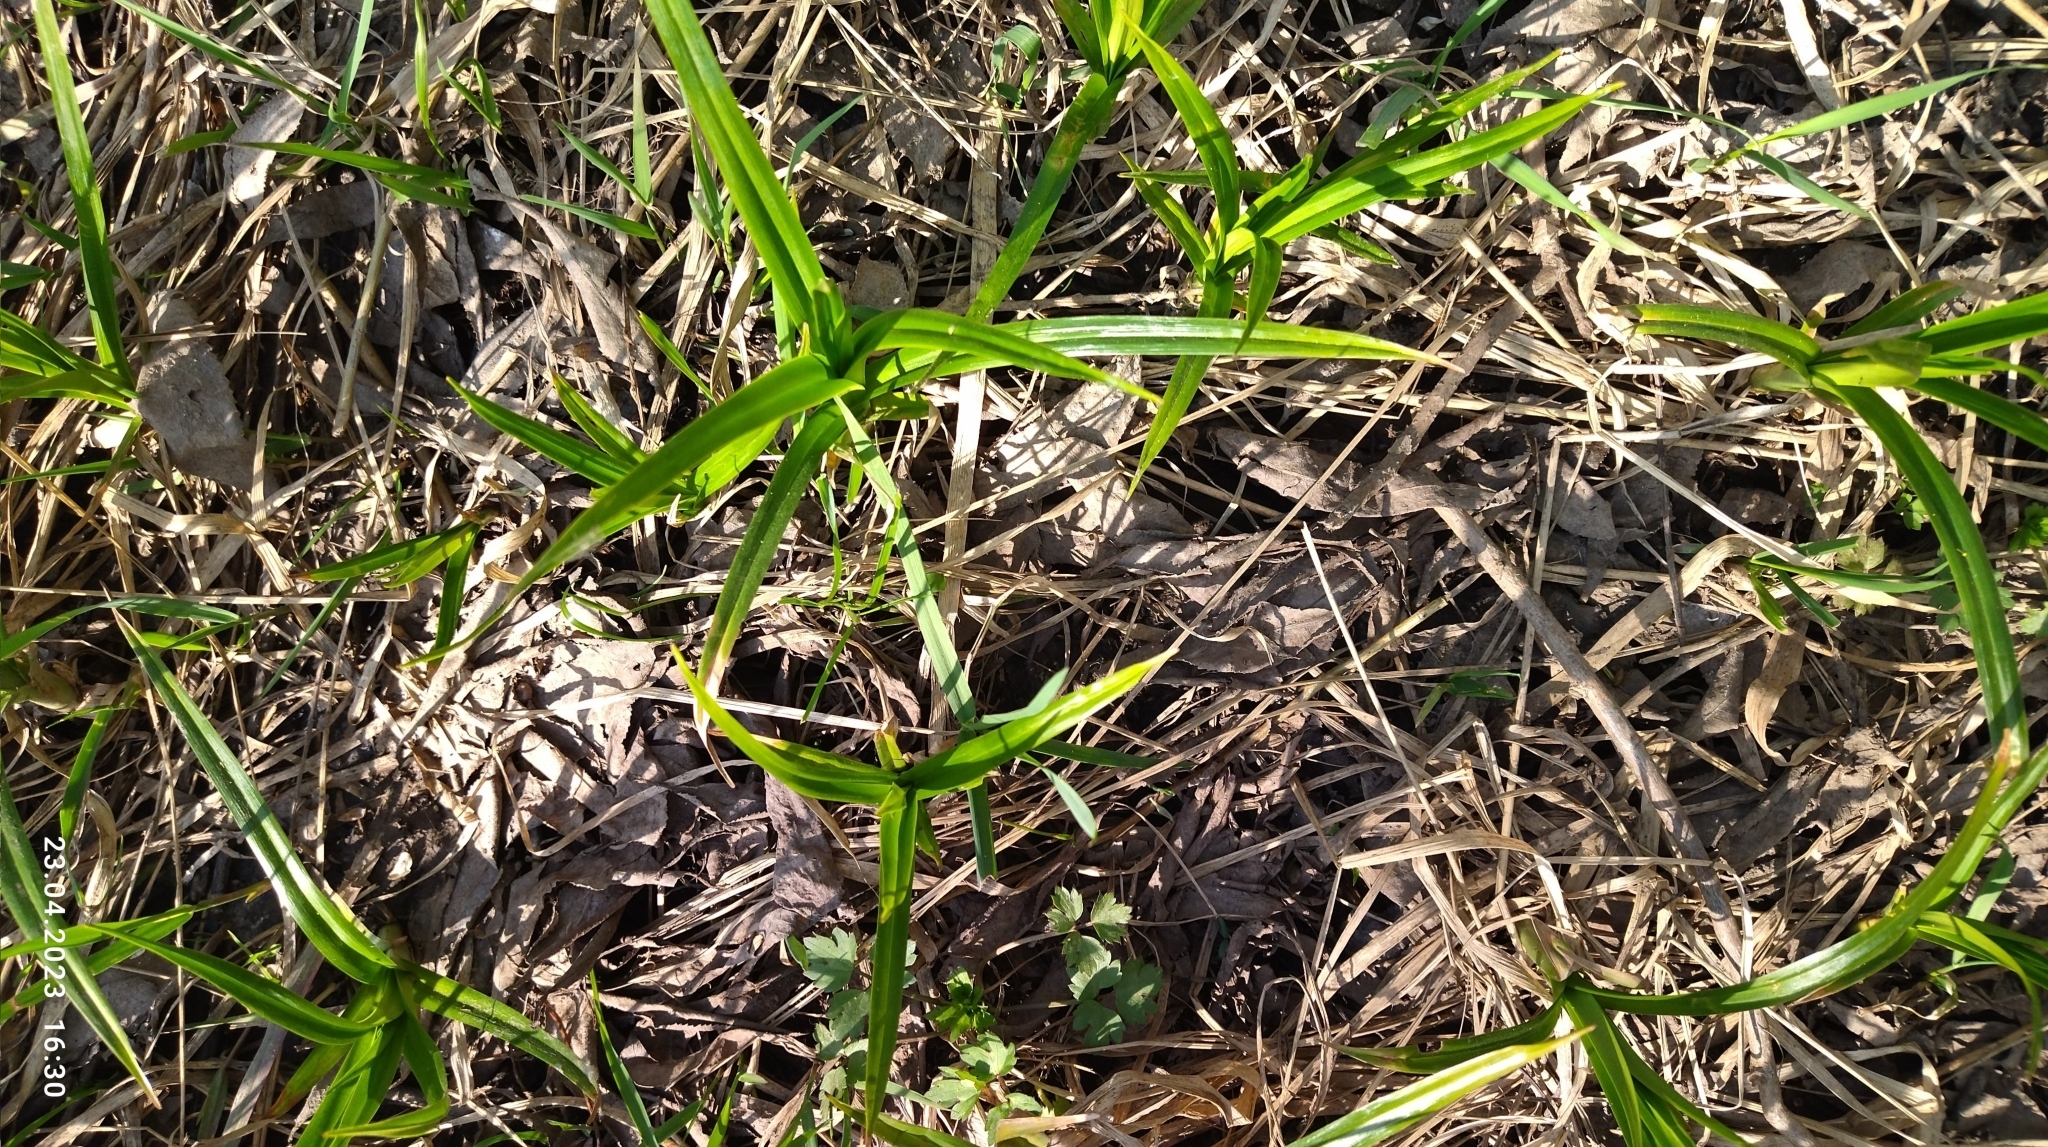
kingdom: Plantae
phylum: Tracheophyta
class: Liliopsida
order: Poales
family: Cyperaceae
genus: Scirpus
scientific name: Scirpus sylvaticus
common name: Wood club-rush
